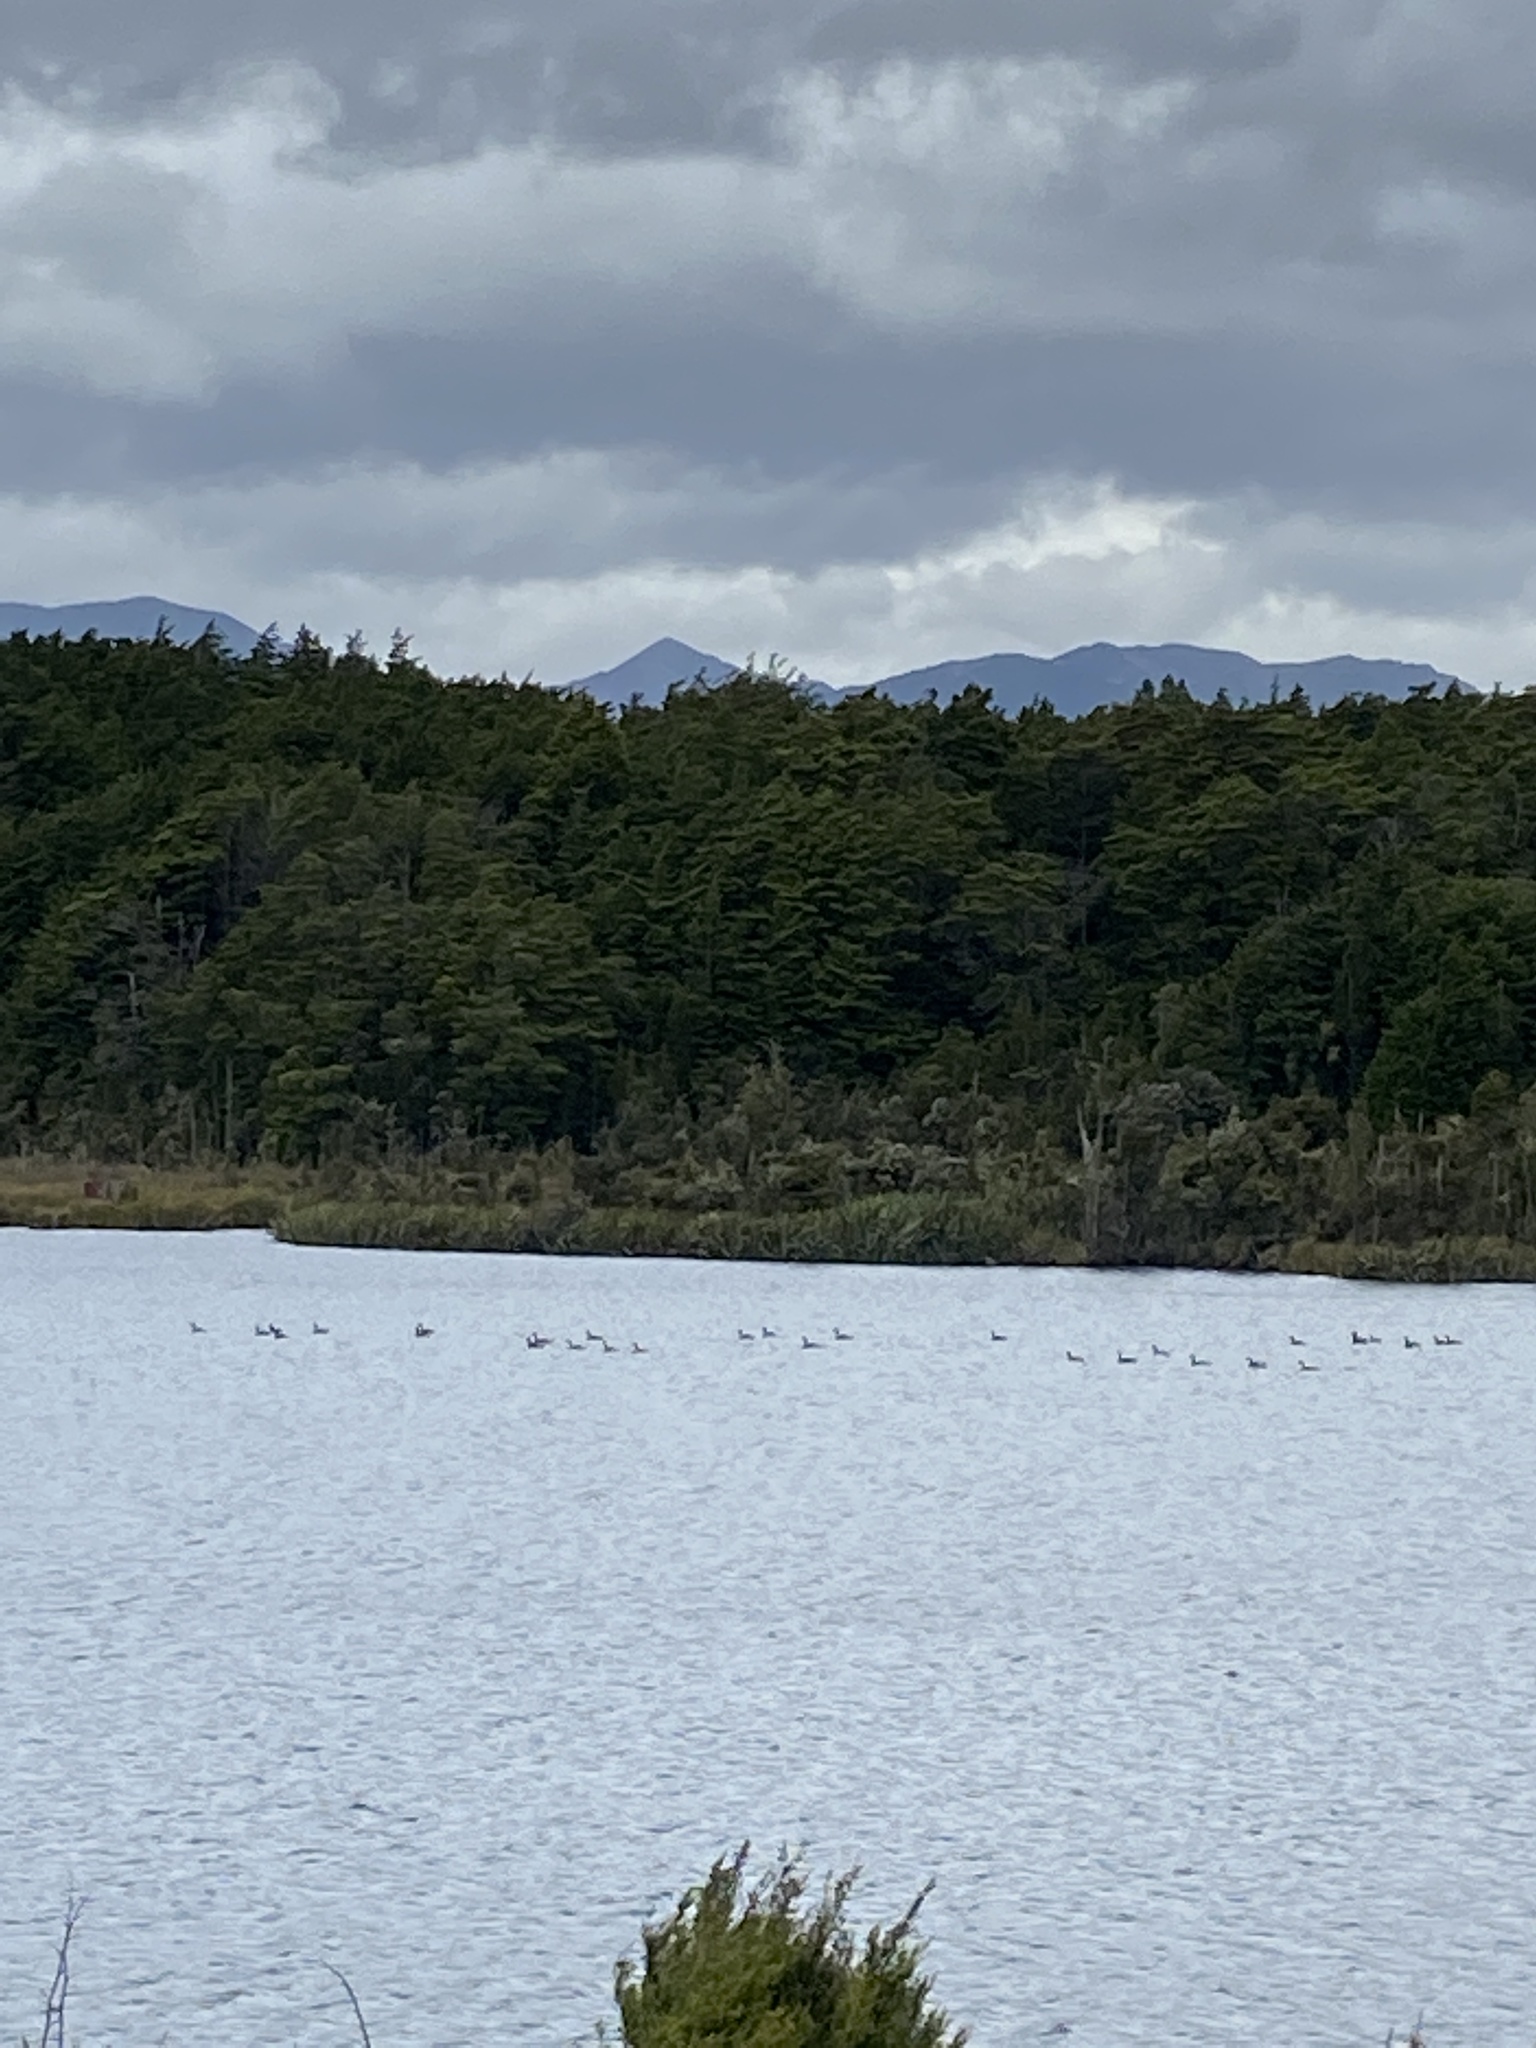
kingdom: Animalia
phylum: Chordata
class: Aves
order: Anseriformes
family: Anatidae
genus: Branta
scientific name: Branta canadensis
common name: Canada goose
